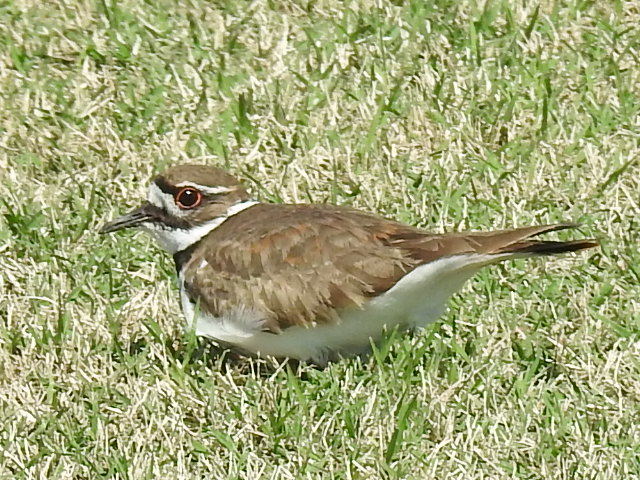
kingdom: Animalia
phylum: Chordata
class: Aves
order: Charadriiformes
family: Charadriidae
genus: Charadrius
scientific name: Charadrius vociferus
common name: Killdeer
